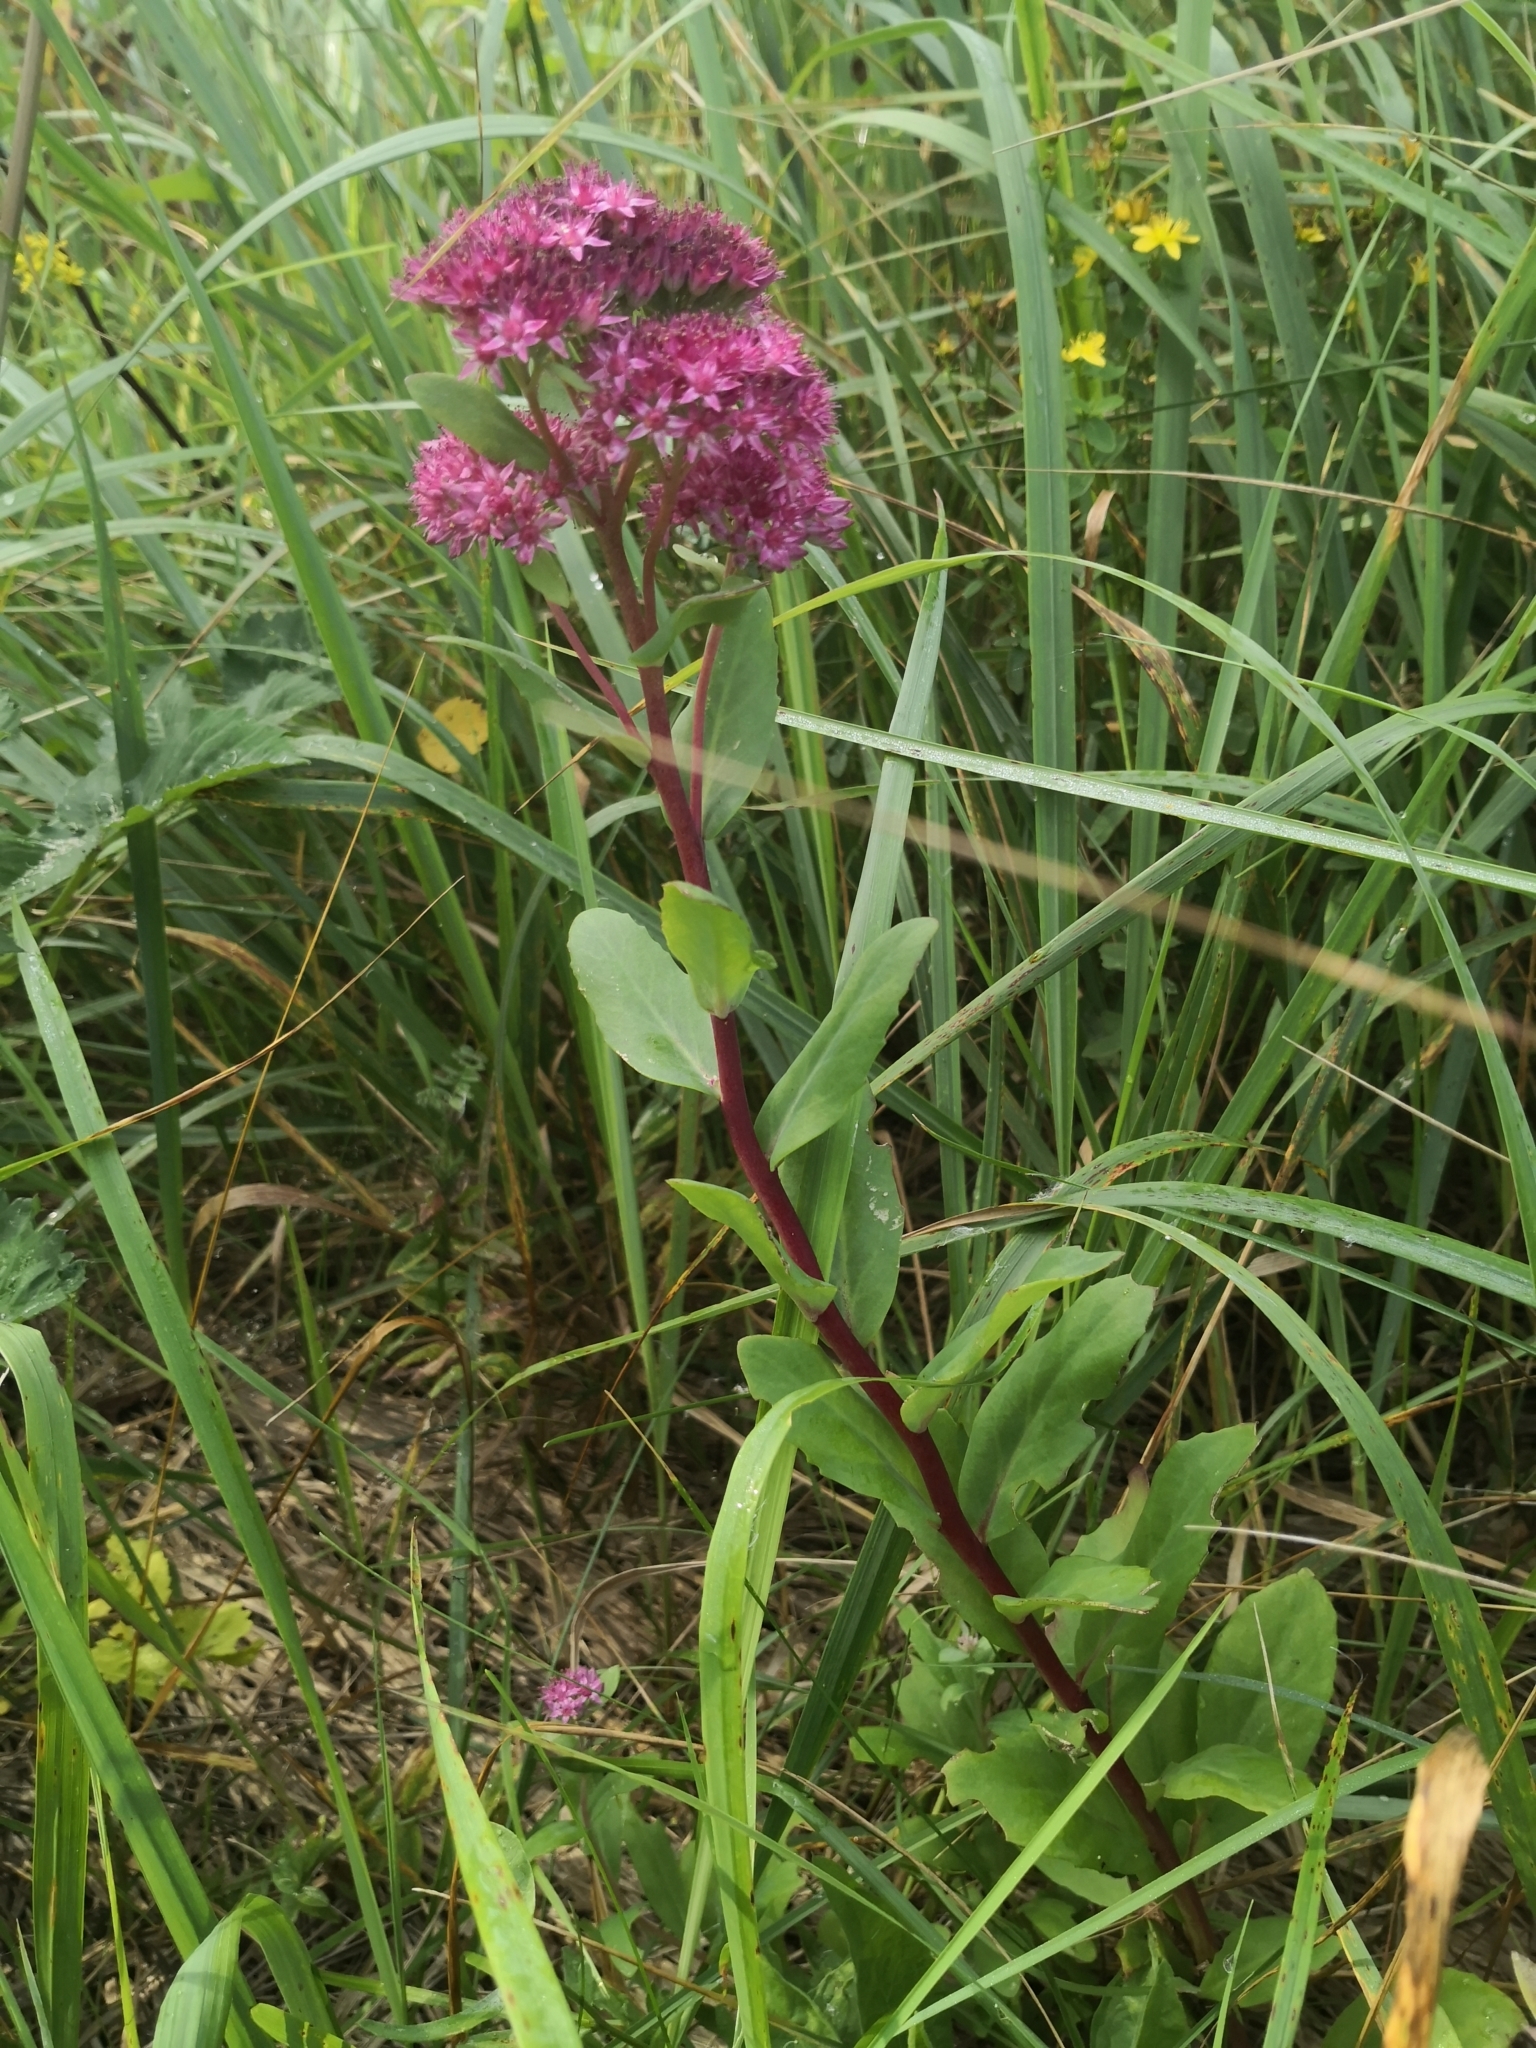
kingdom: Plantae
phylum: Tracheophyta
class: Magnoliopsida
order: Saxifragales
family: Crassulaceae
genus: Hylotelephium
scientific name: Hylotelephium telephium
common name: Live-forever
